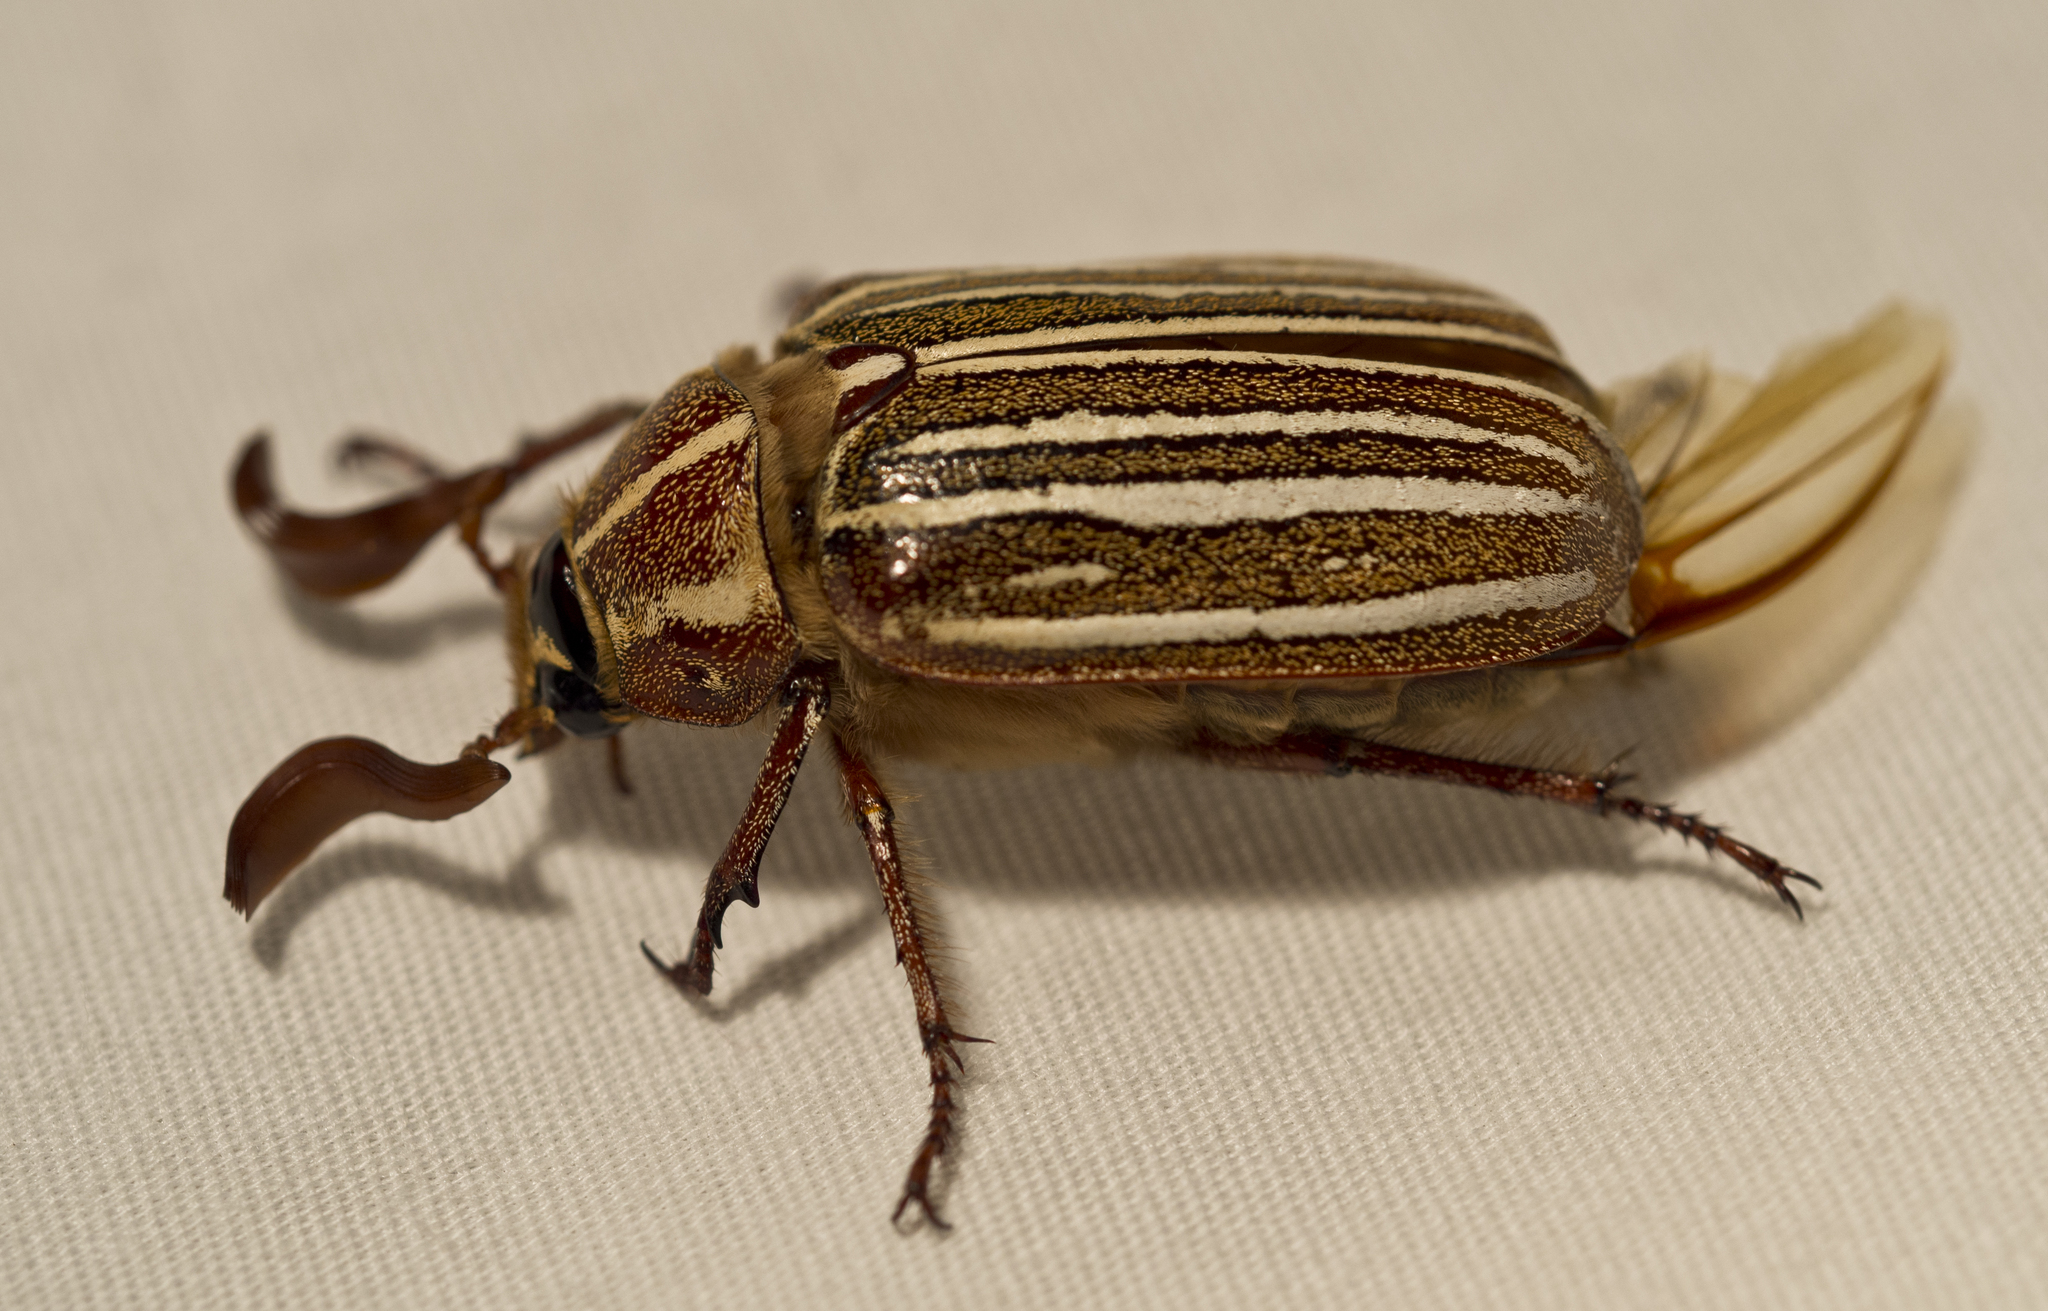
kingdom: Animalia
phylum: Arthropoda
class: Insecta
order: Coleoptera
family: Scarabaeidae
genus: Polyphylla
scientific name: Polyphylla decemlineata
